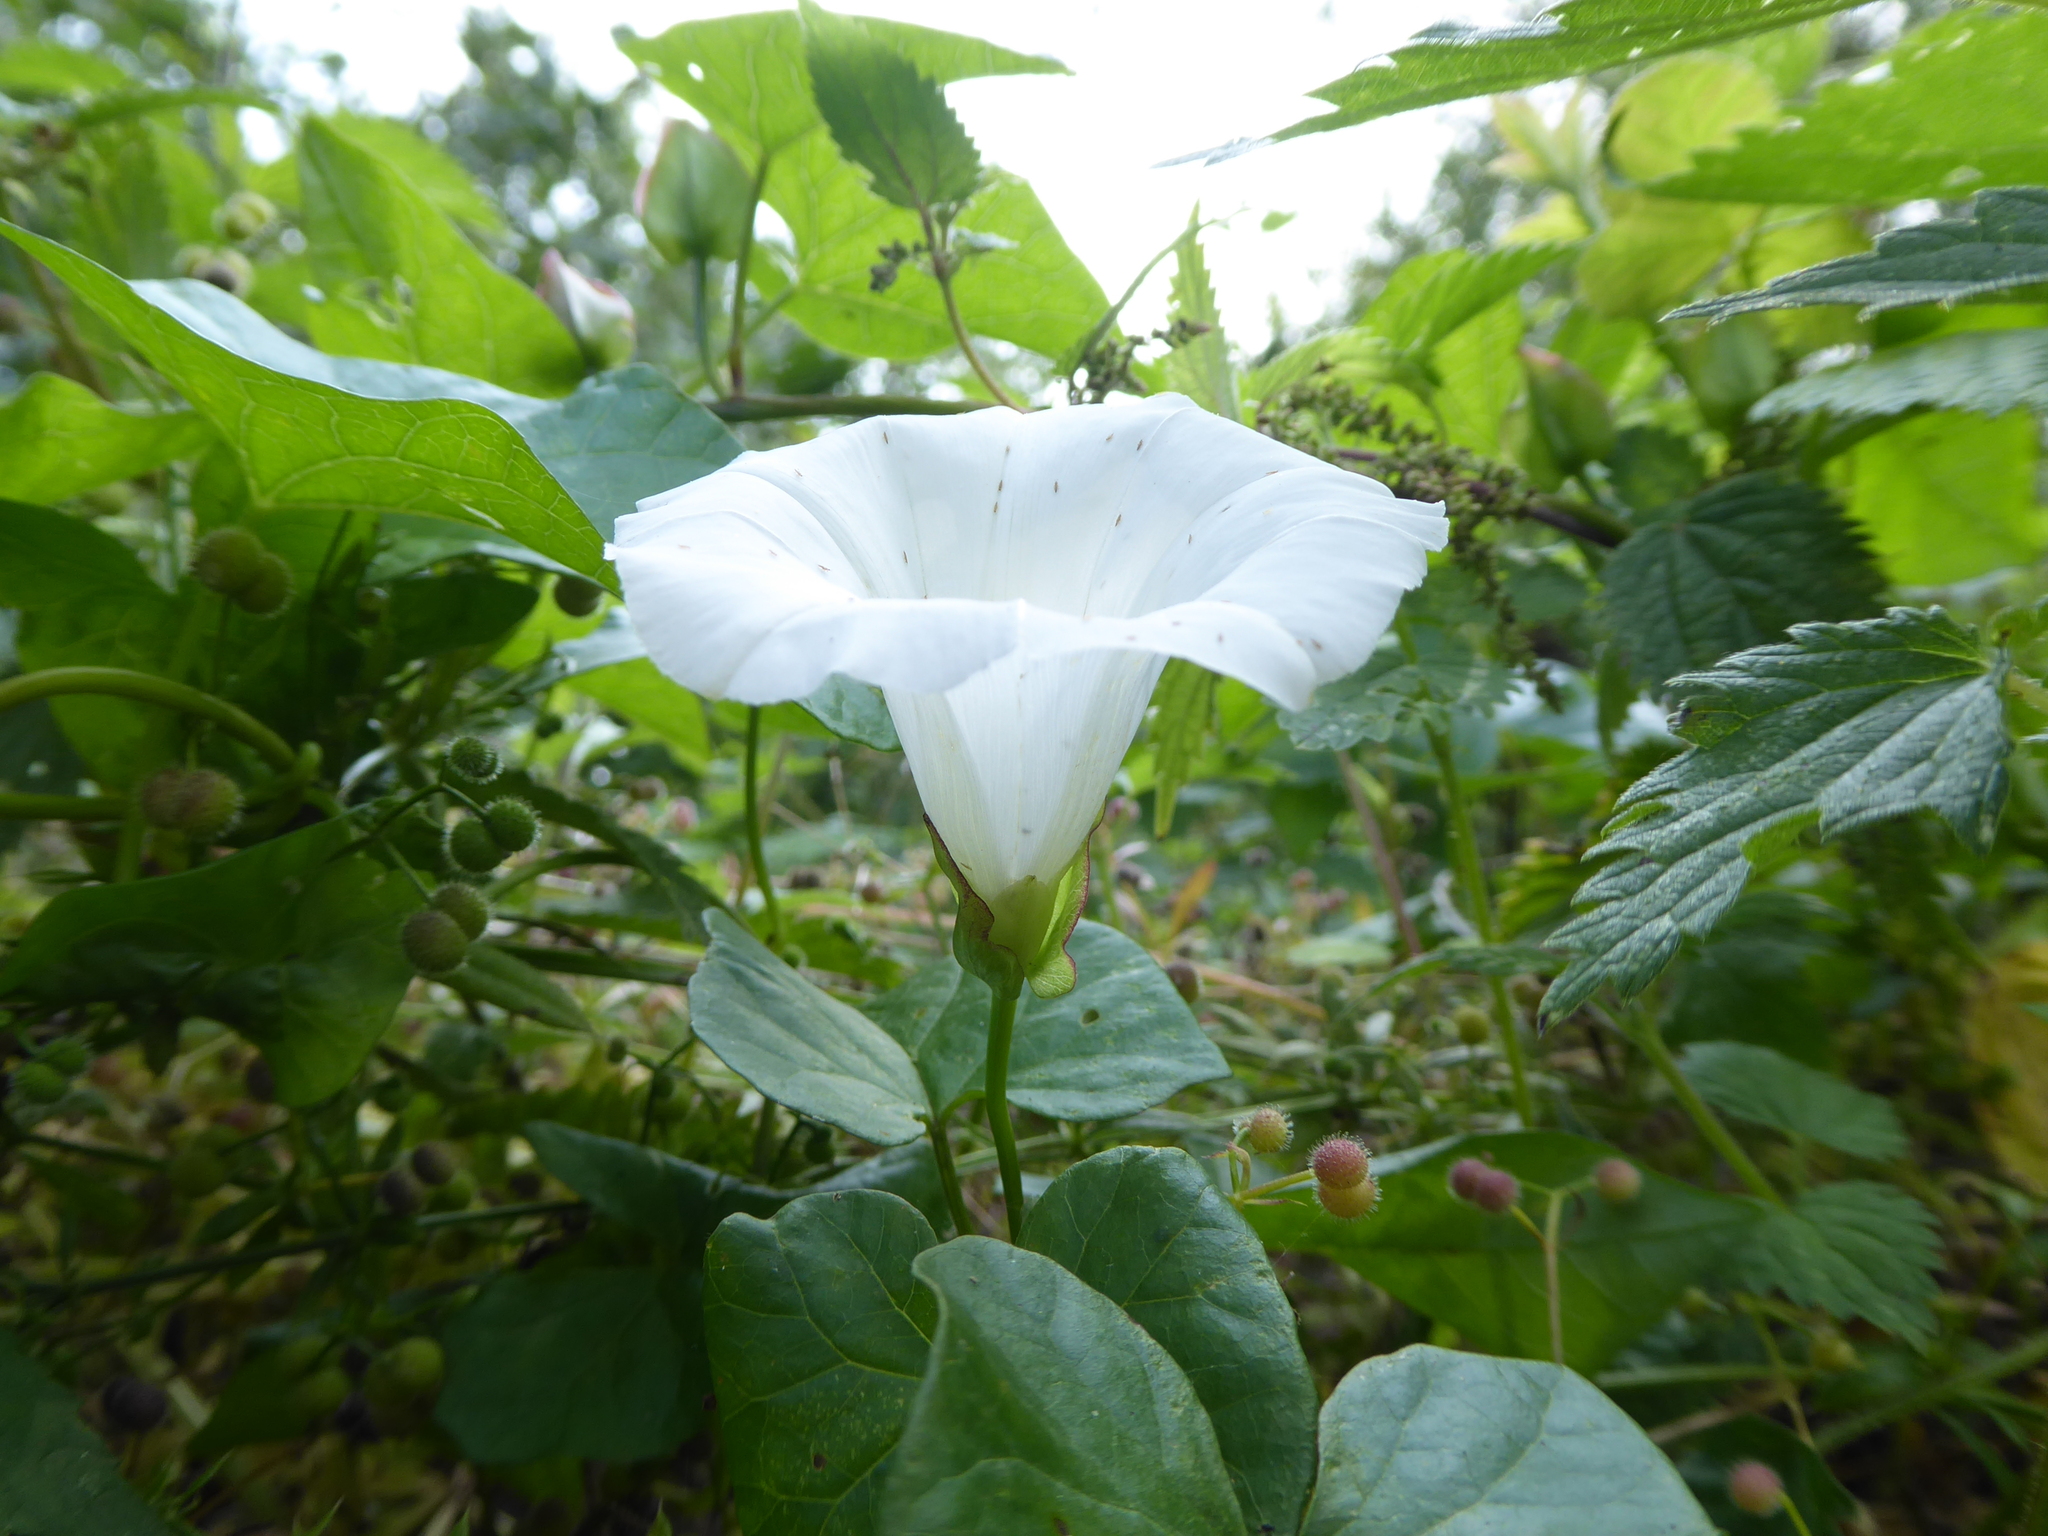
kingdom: Plantae
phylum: Tracheophyta
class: Magnoliopsida
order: Solanales
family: Convolvulaceae
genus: Calystegia
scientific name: Calystegia sepium
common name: Hedge bindweed
